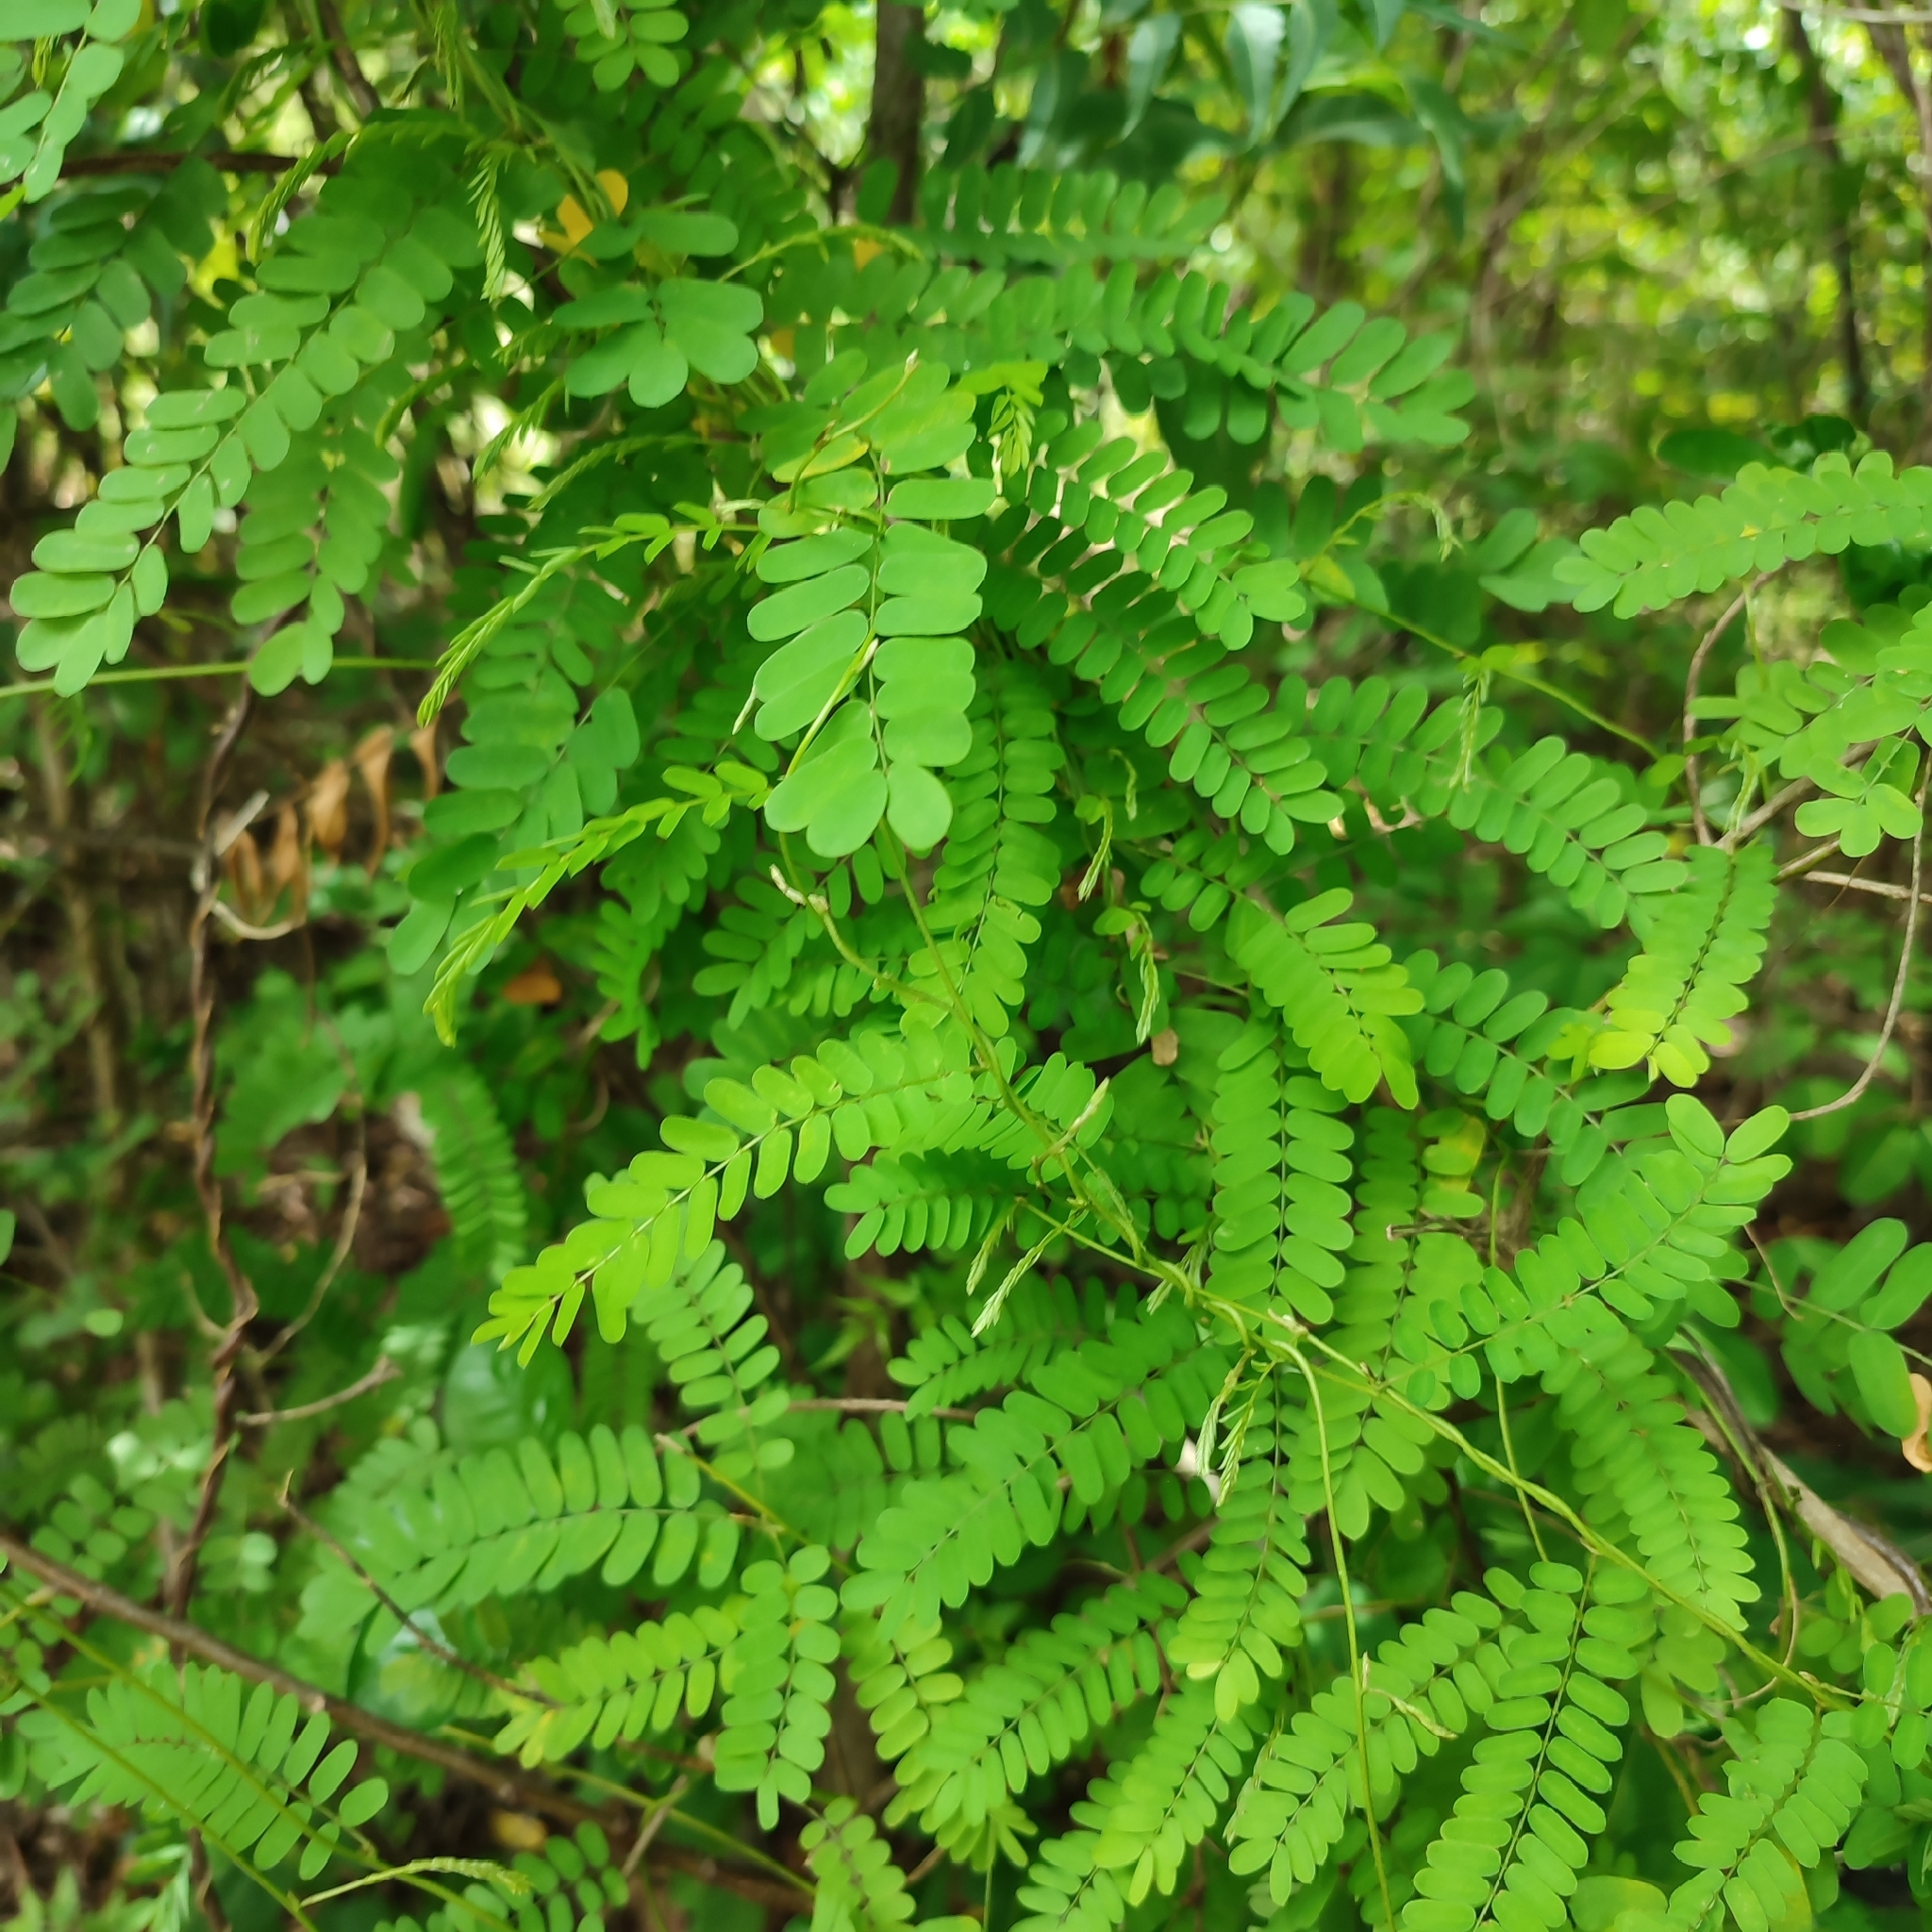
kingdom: Plantae
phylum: Tracheophyta
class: Magnoliopsida
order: Fabales
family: Fabaceae
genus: Abrus
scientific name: Abrus precatorius
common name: Rosarypea
